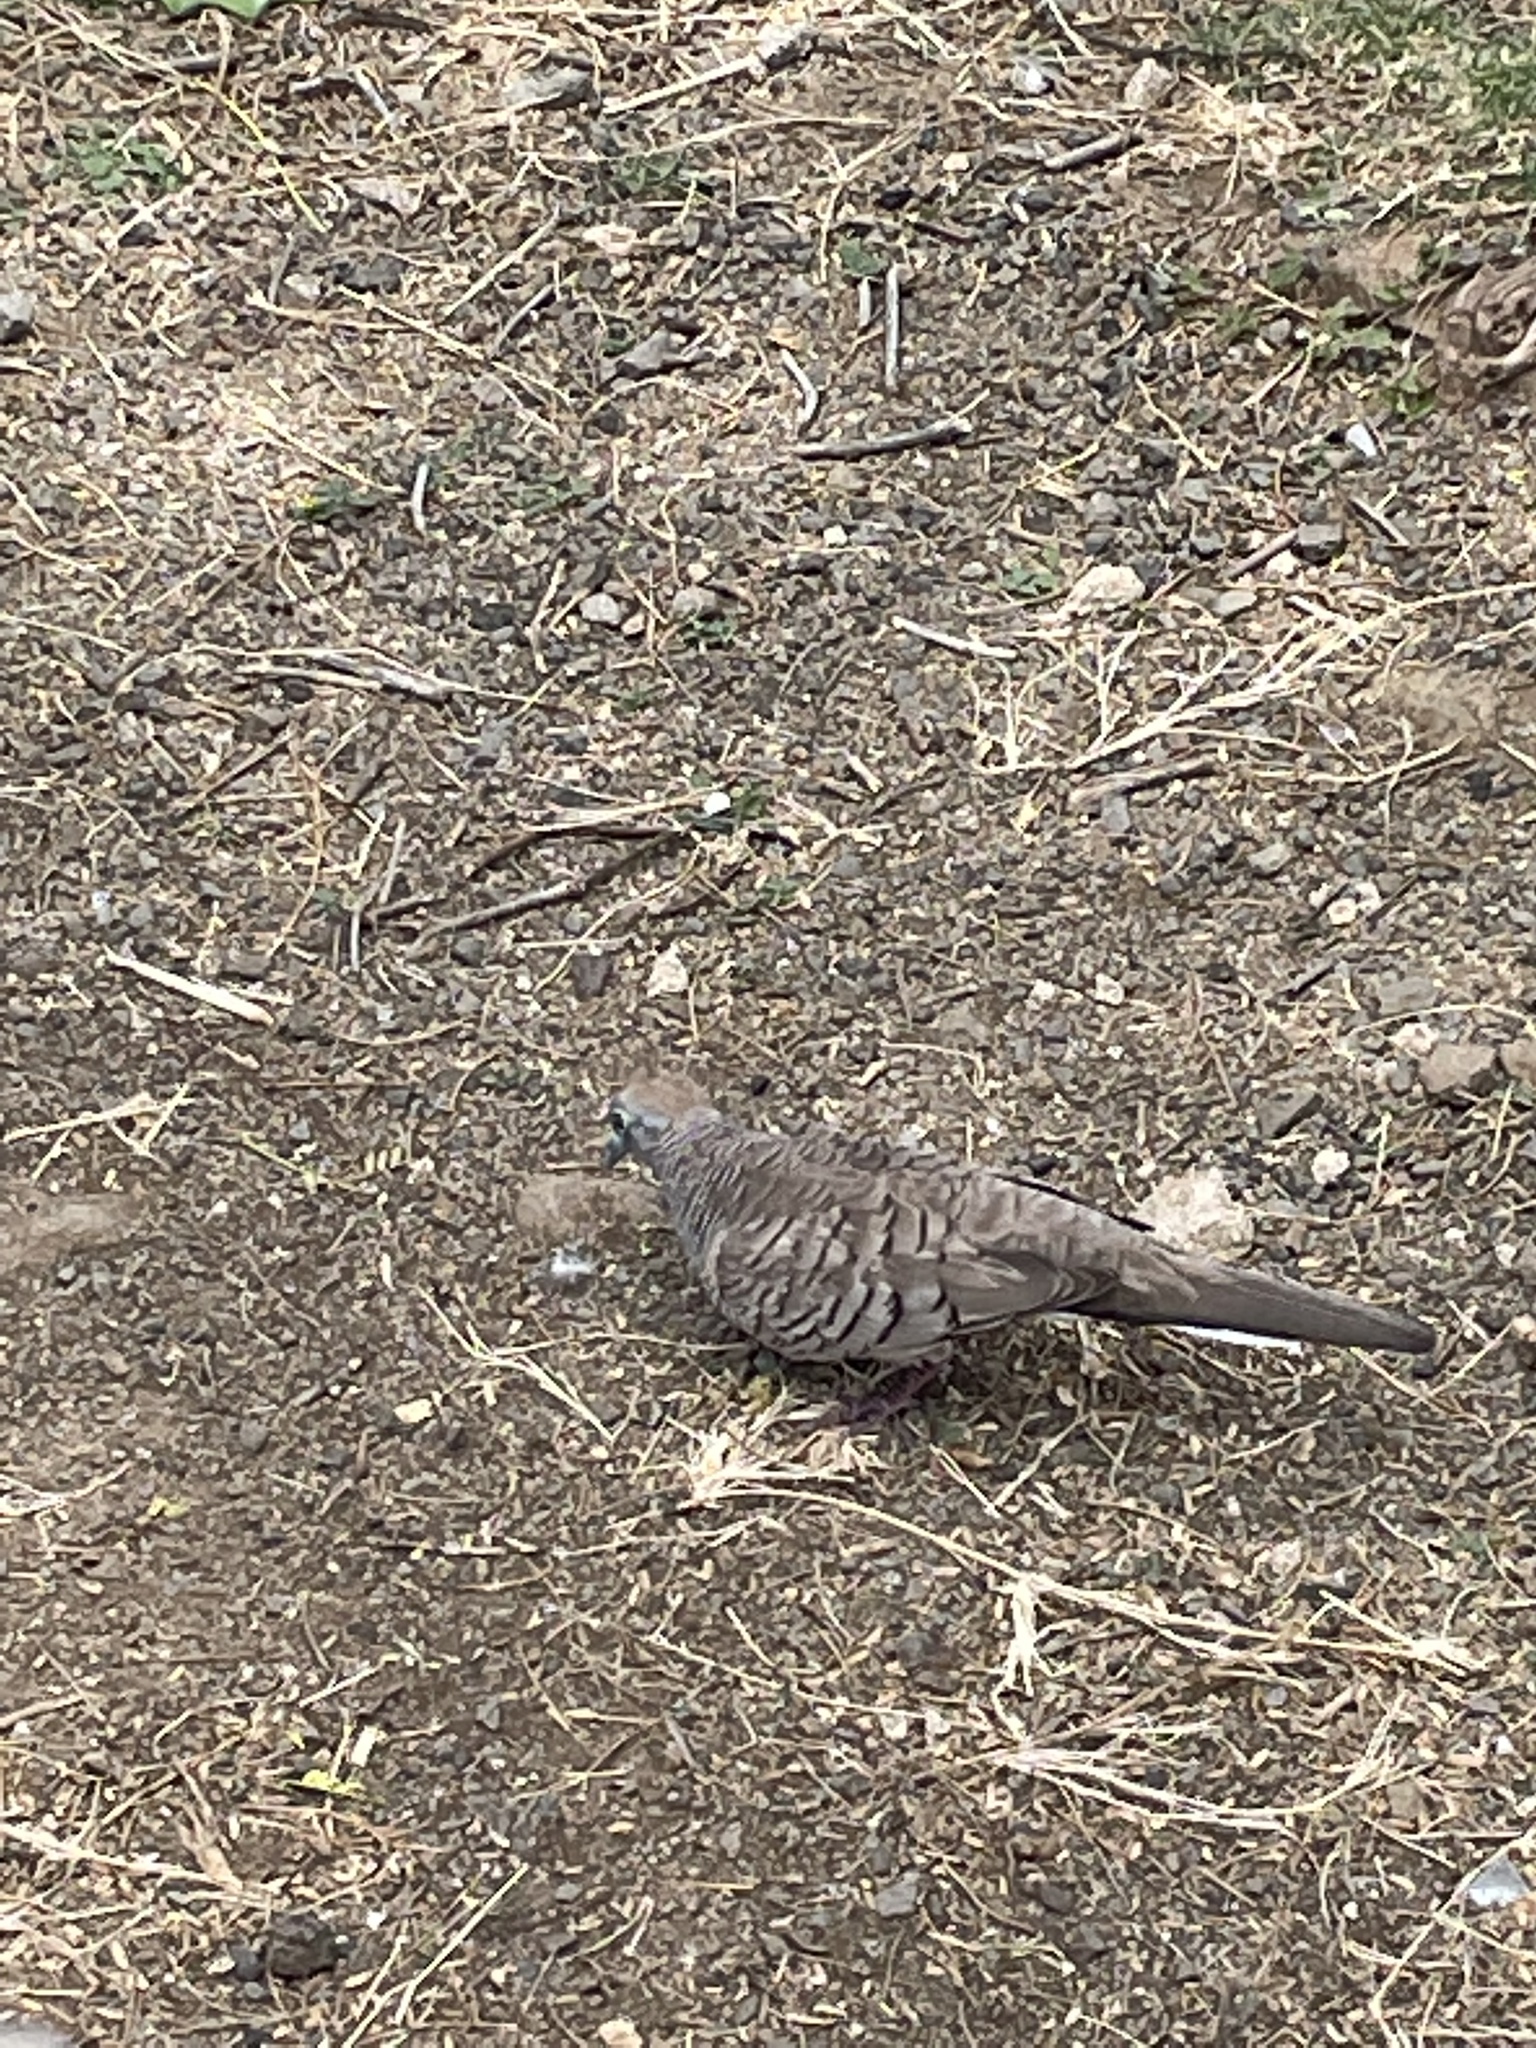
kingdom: Animalia
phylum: Chordata
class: Aves
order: Columbiformes
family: Columbidae
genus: Geopelia
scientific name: Geopelia striata
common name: Zebra dove
